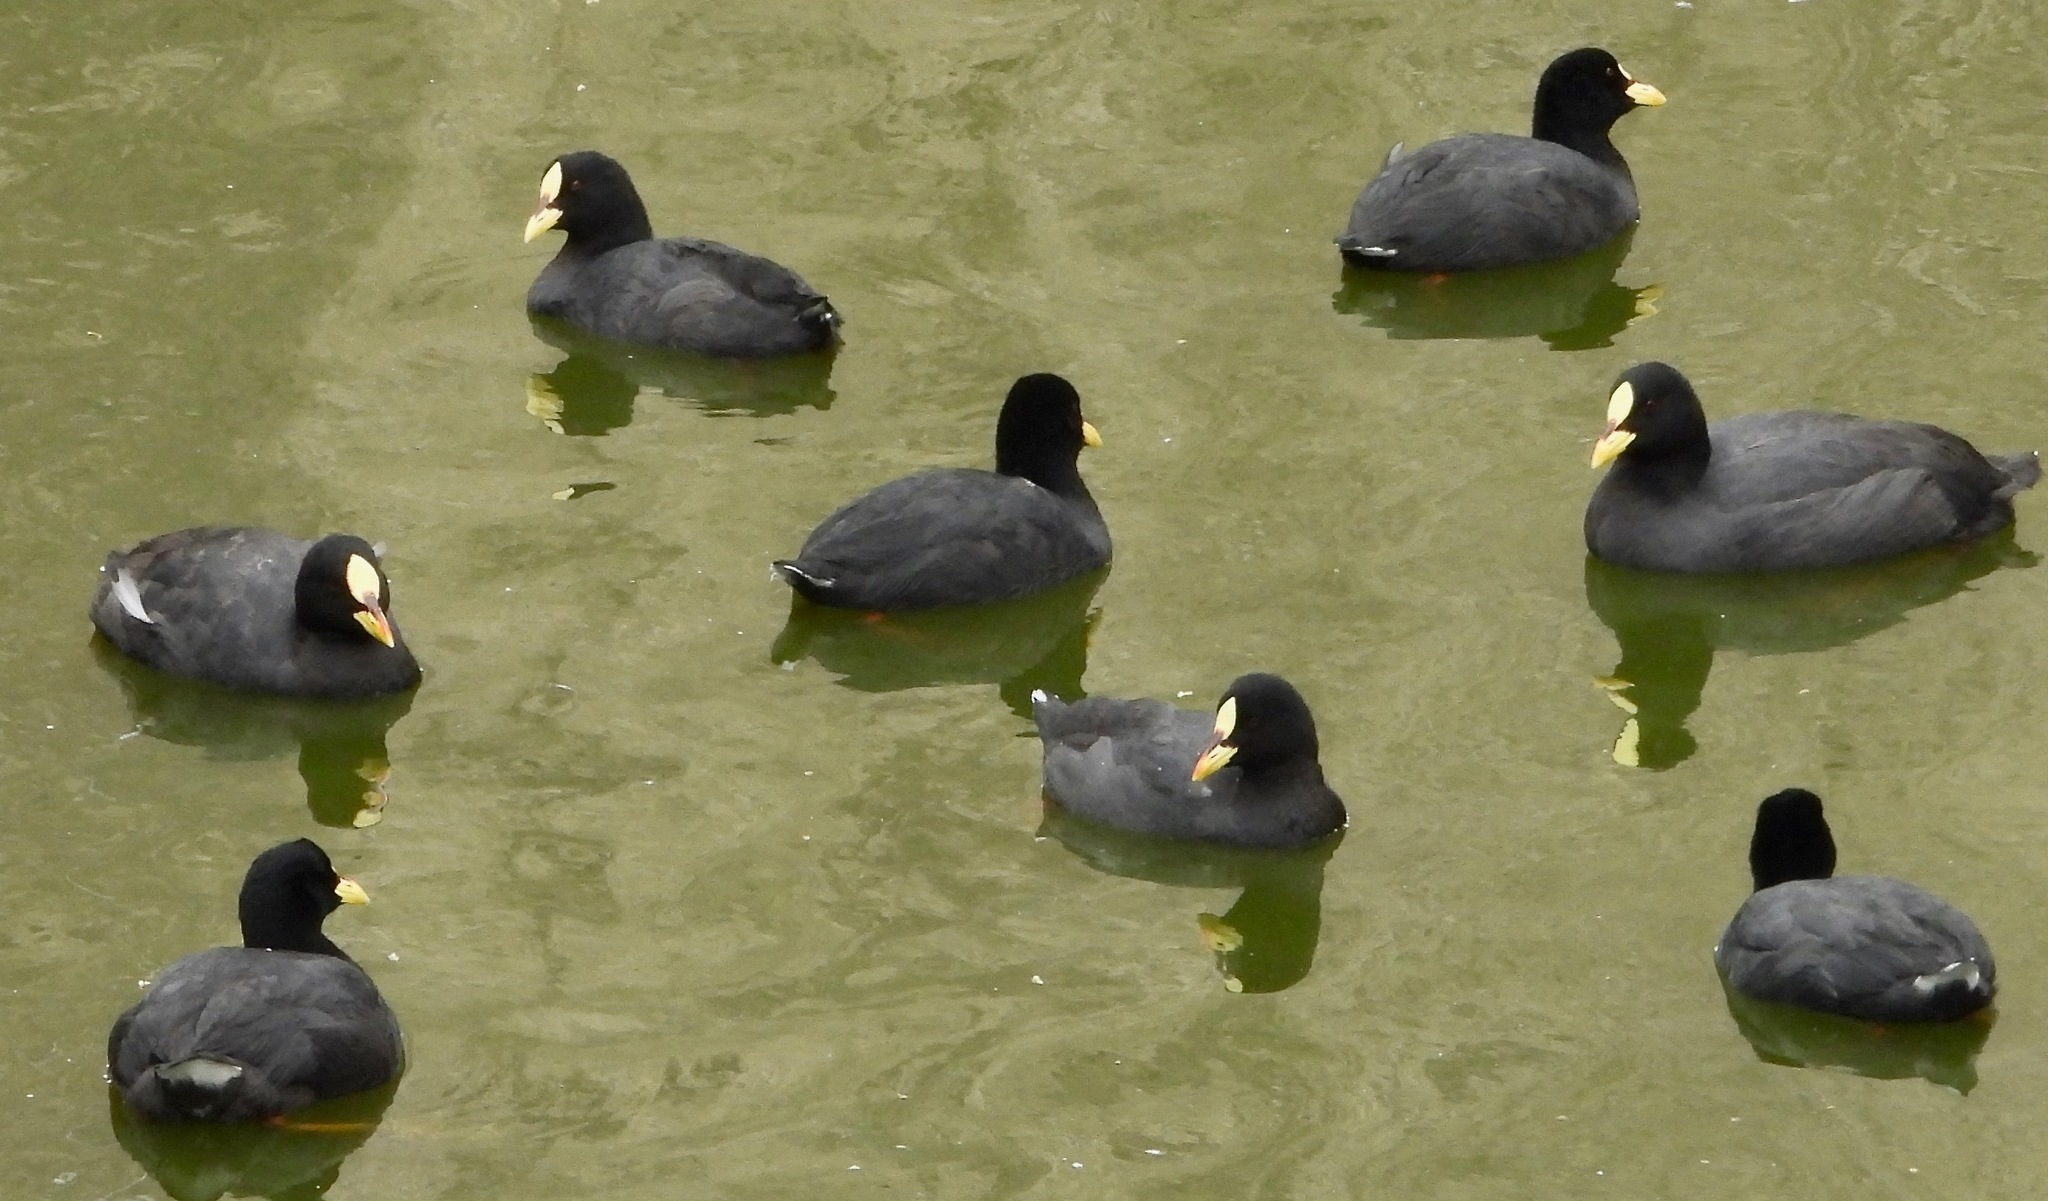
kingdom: Animalia
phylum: Chordata
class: Aves
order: Gruiformes
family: Rallidae
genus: Fulica
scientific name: Fulica armillata
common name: Red-gartered coot
